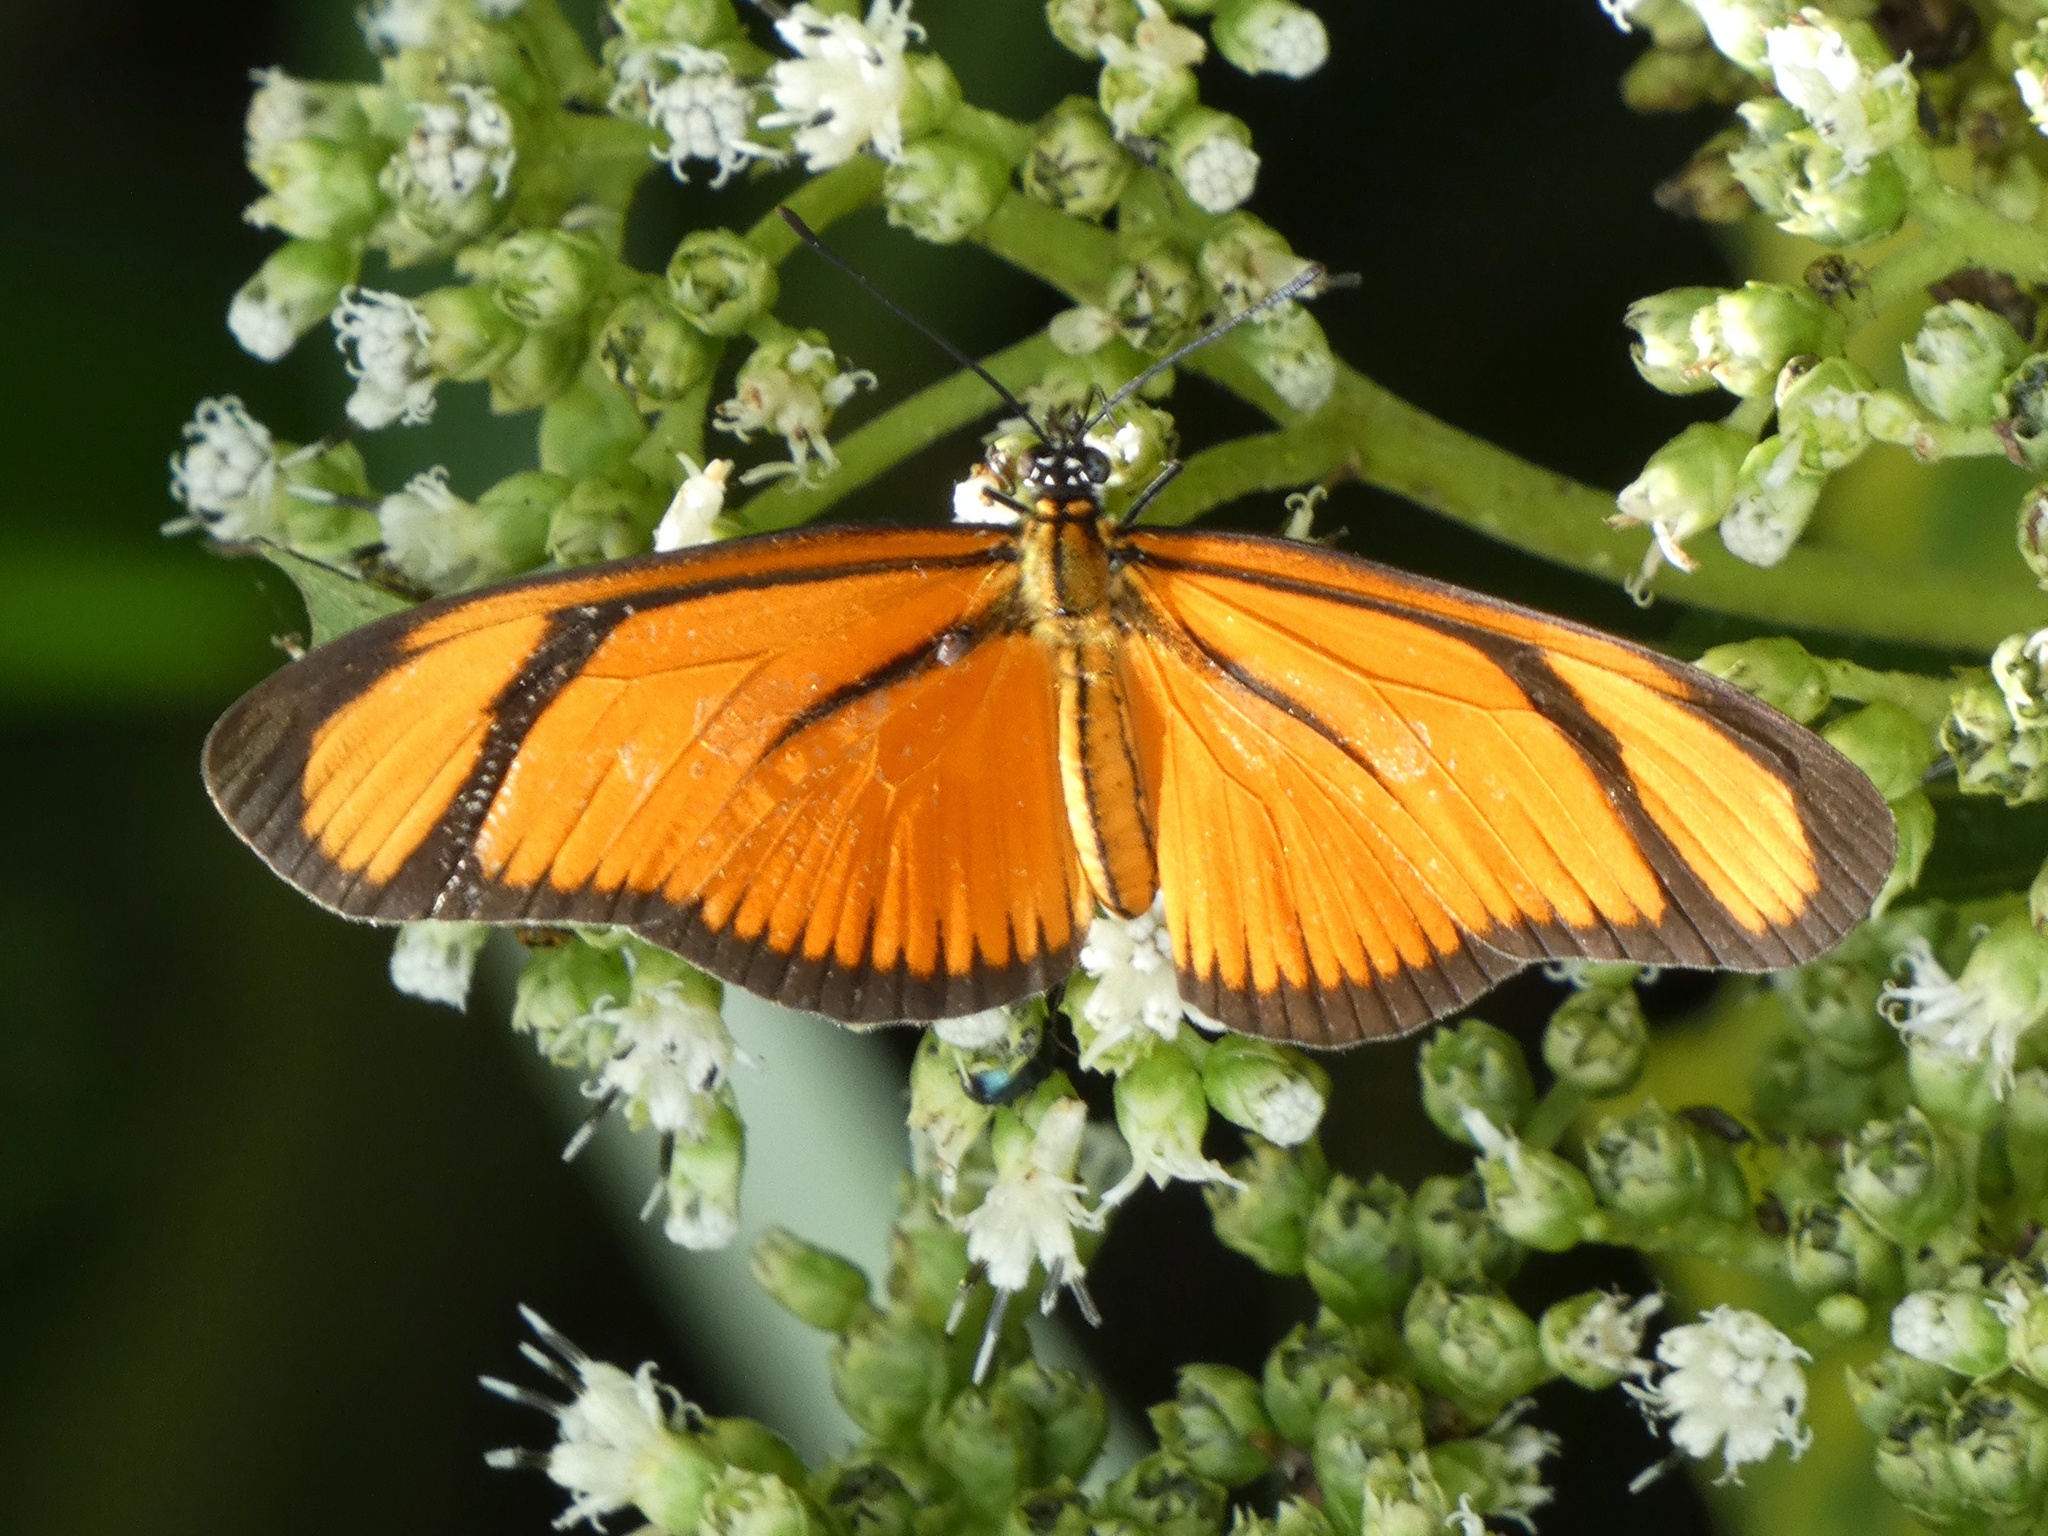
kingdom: Animalia
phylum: Arthropoda
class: Insecta
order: Lepidoptera
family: Nymphalidae
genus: Heliconius
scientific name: Heliconius aliphera
